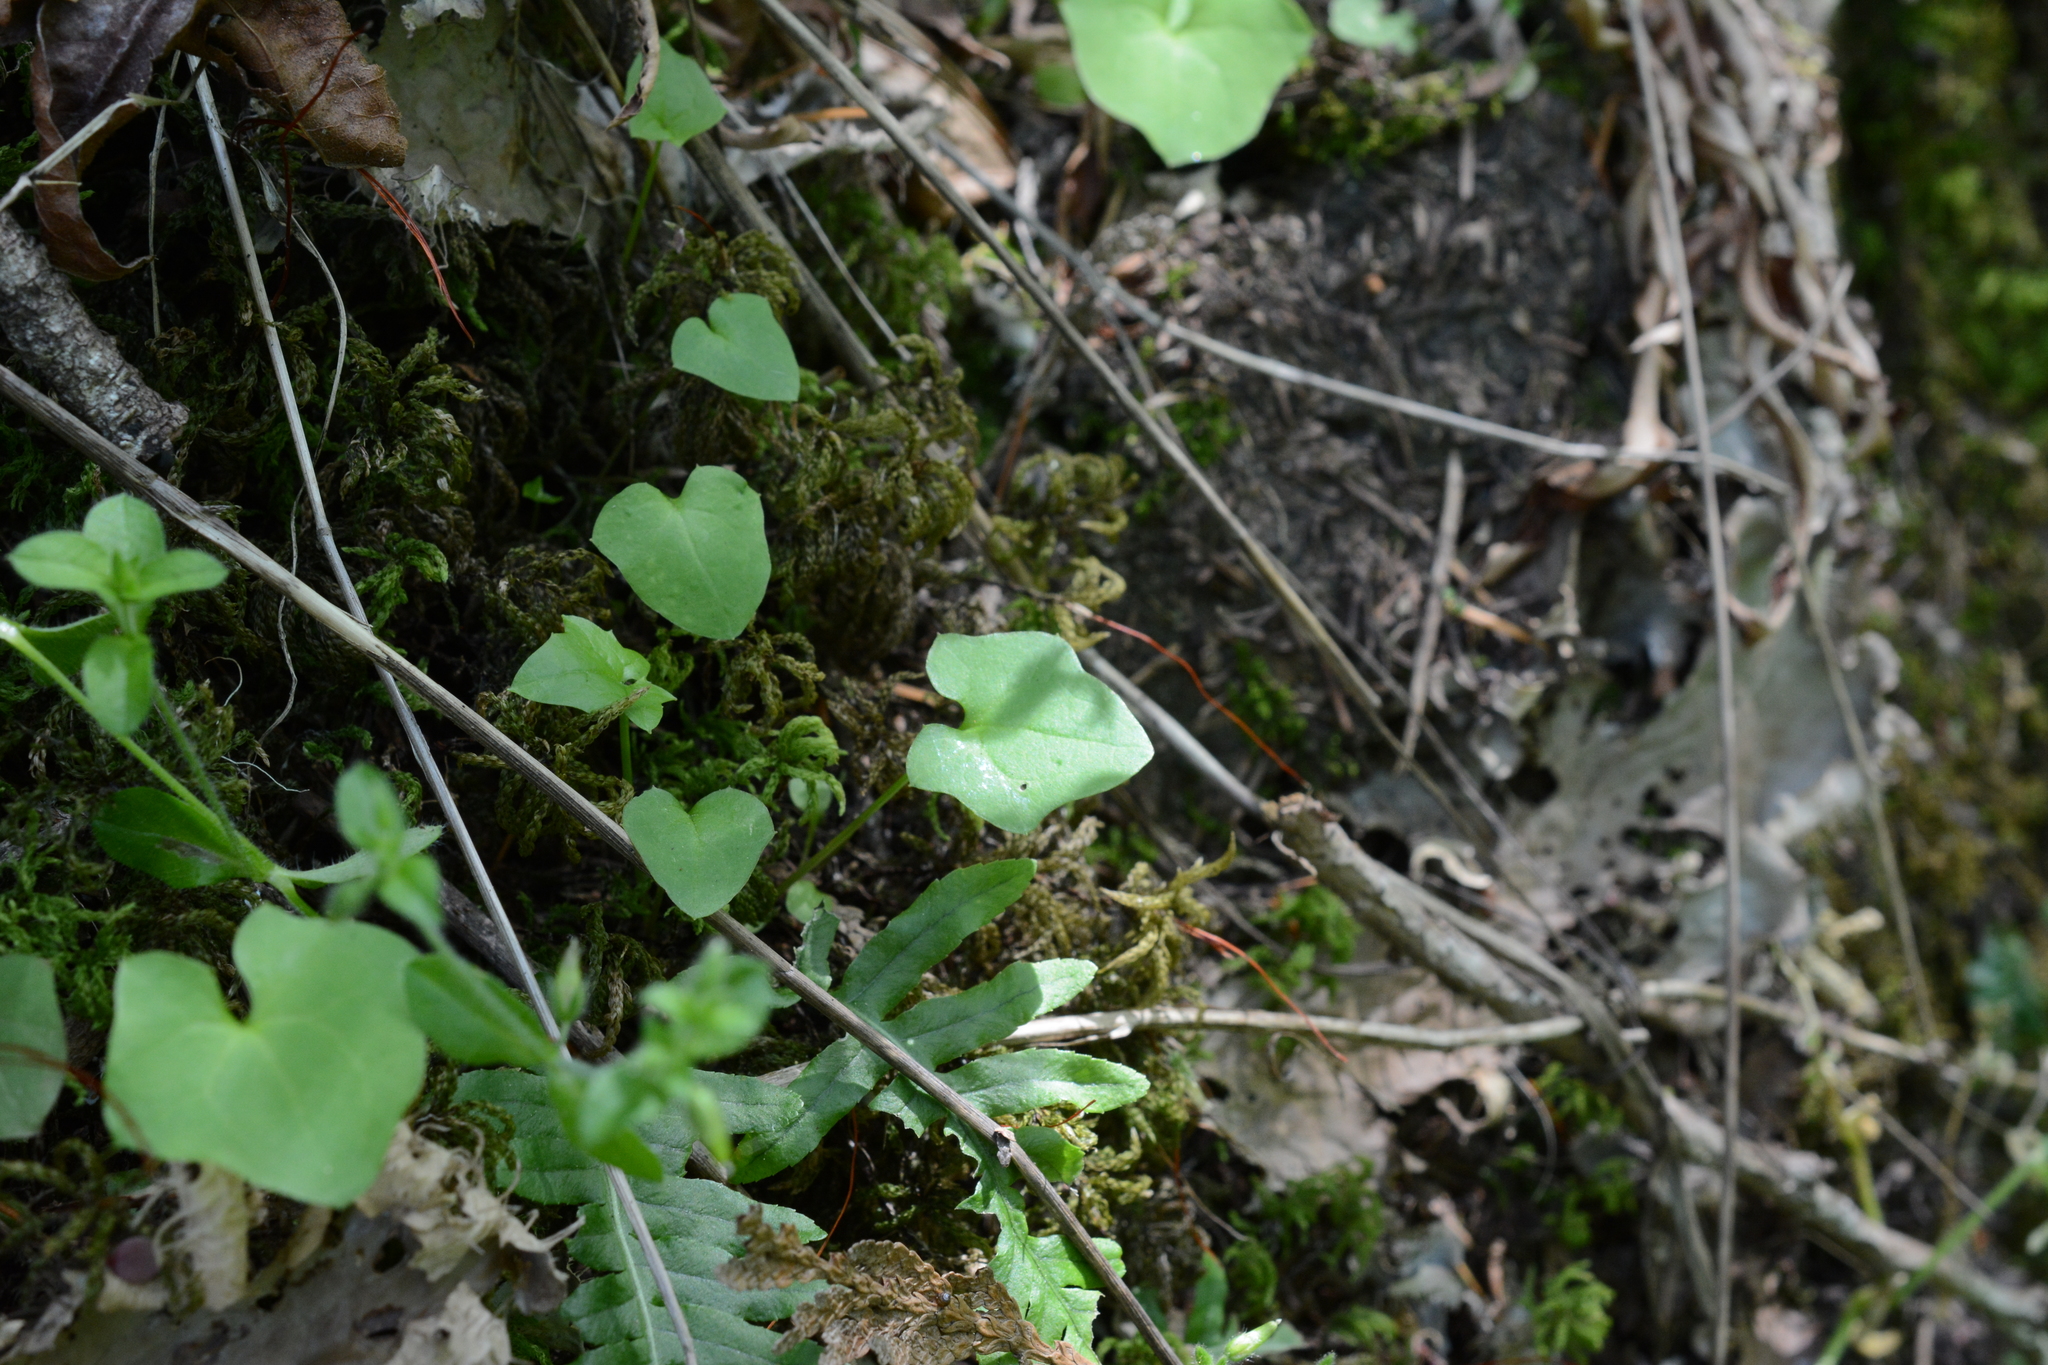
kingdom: Plantae
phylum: Tracheophyta
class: Magnoliopsida
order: Asterales
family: Asteraceae
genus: Mycelis
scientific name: Mycelis muralis
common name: Wall lettuce
